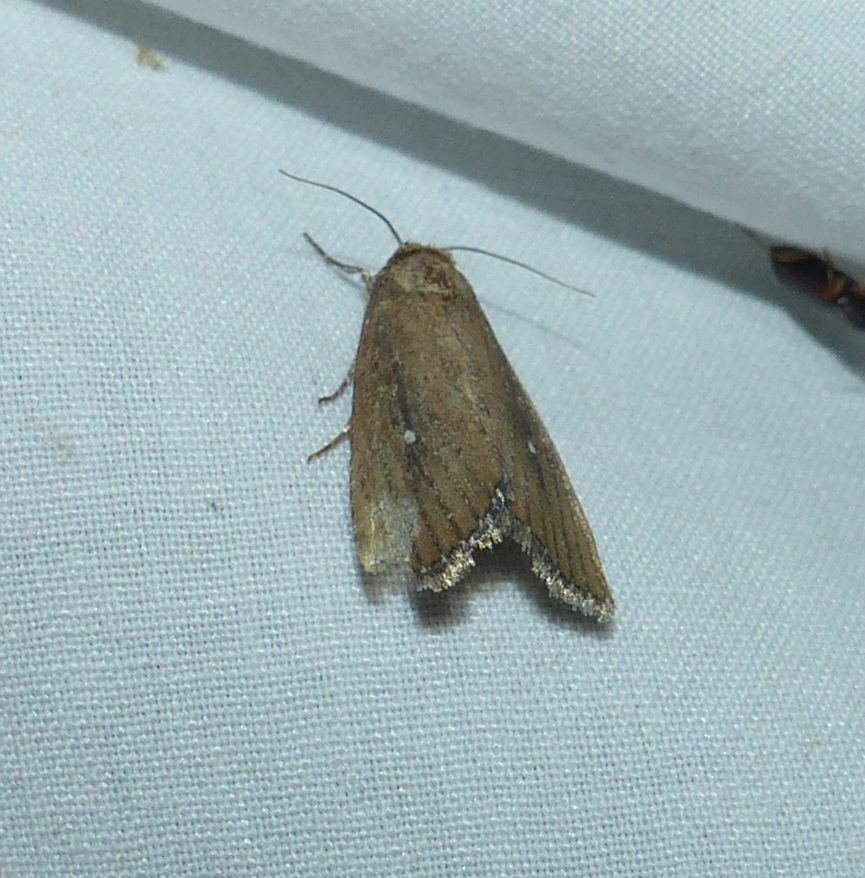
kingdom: Animalia
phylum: Arthropoda
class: Insecta
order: Lepidoptera
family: Noctuidae
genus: Condica
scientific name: Condica videns
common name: White-dotted groundling
